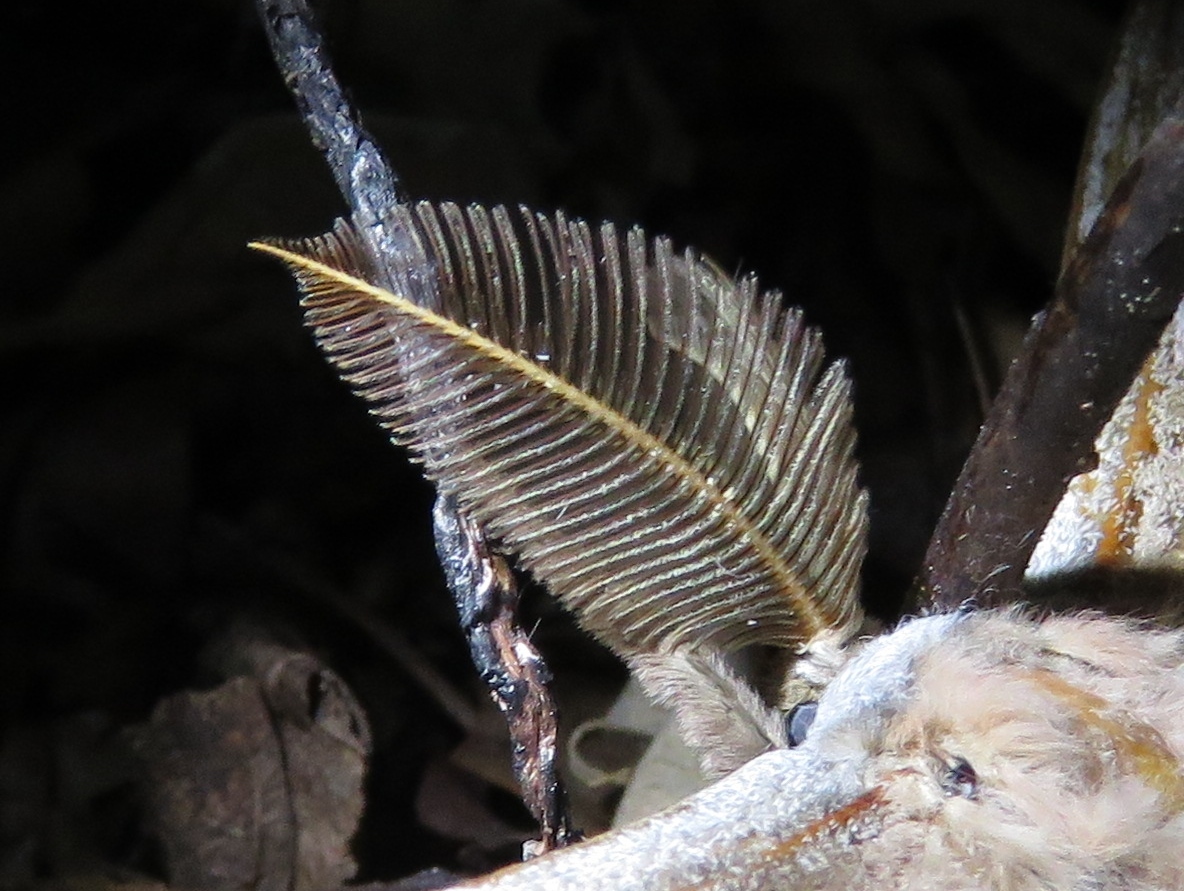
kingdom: Animalia
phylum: Arthropoda
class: Insecta
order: Lepidoptera
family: Saturniidae
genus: Antheraea
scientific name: Antheraea polyphemus
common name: Polyphemus moth
